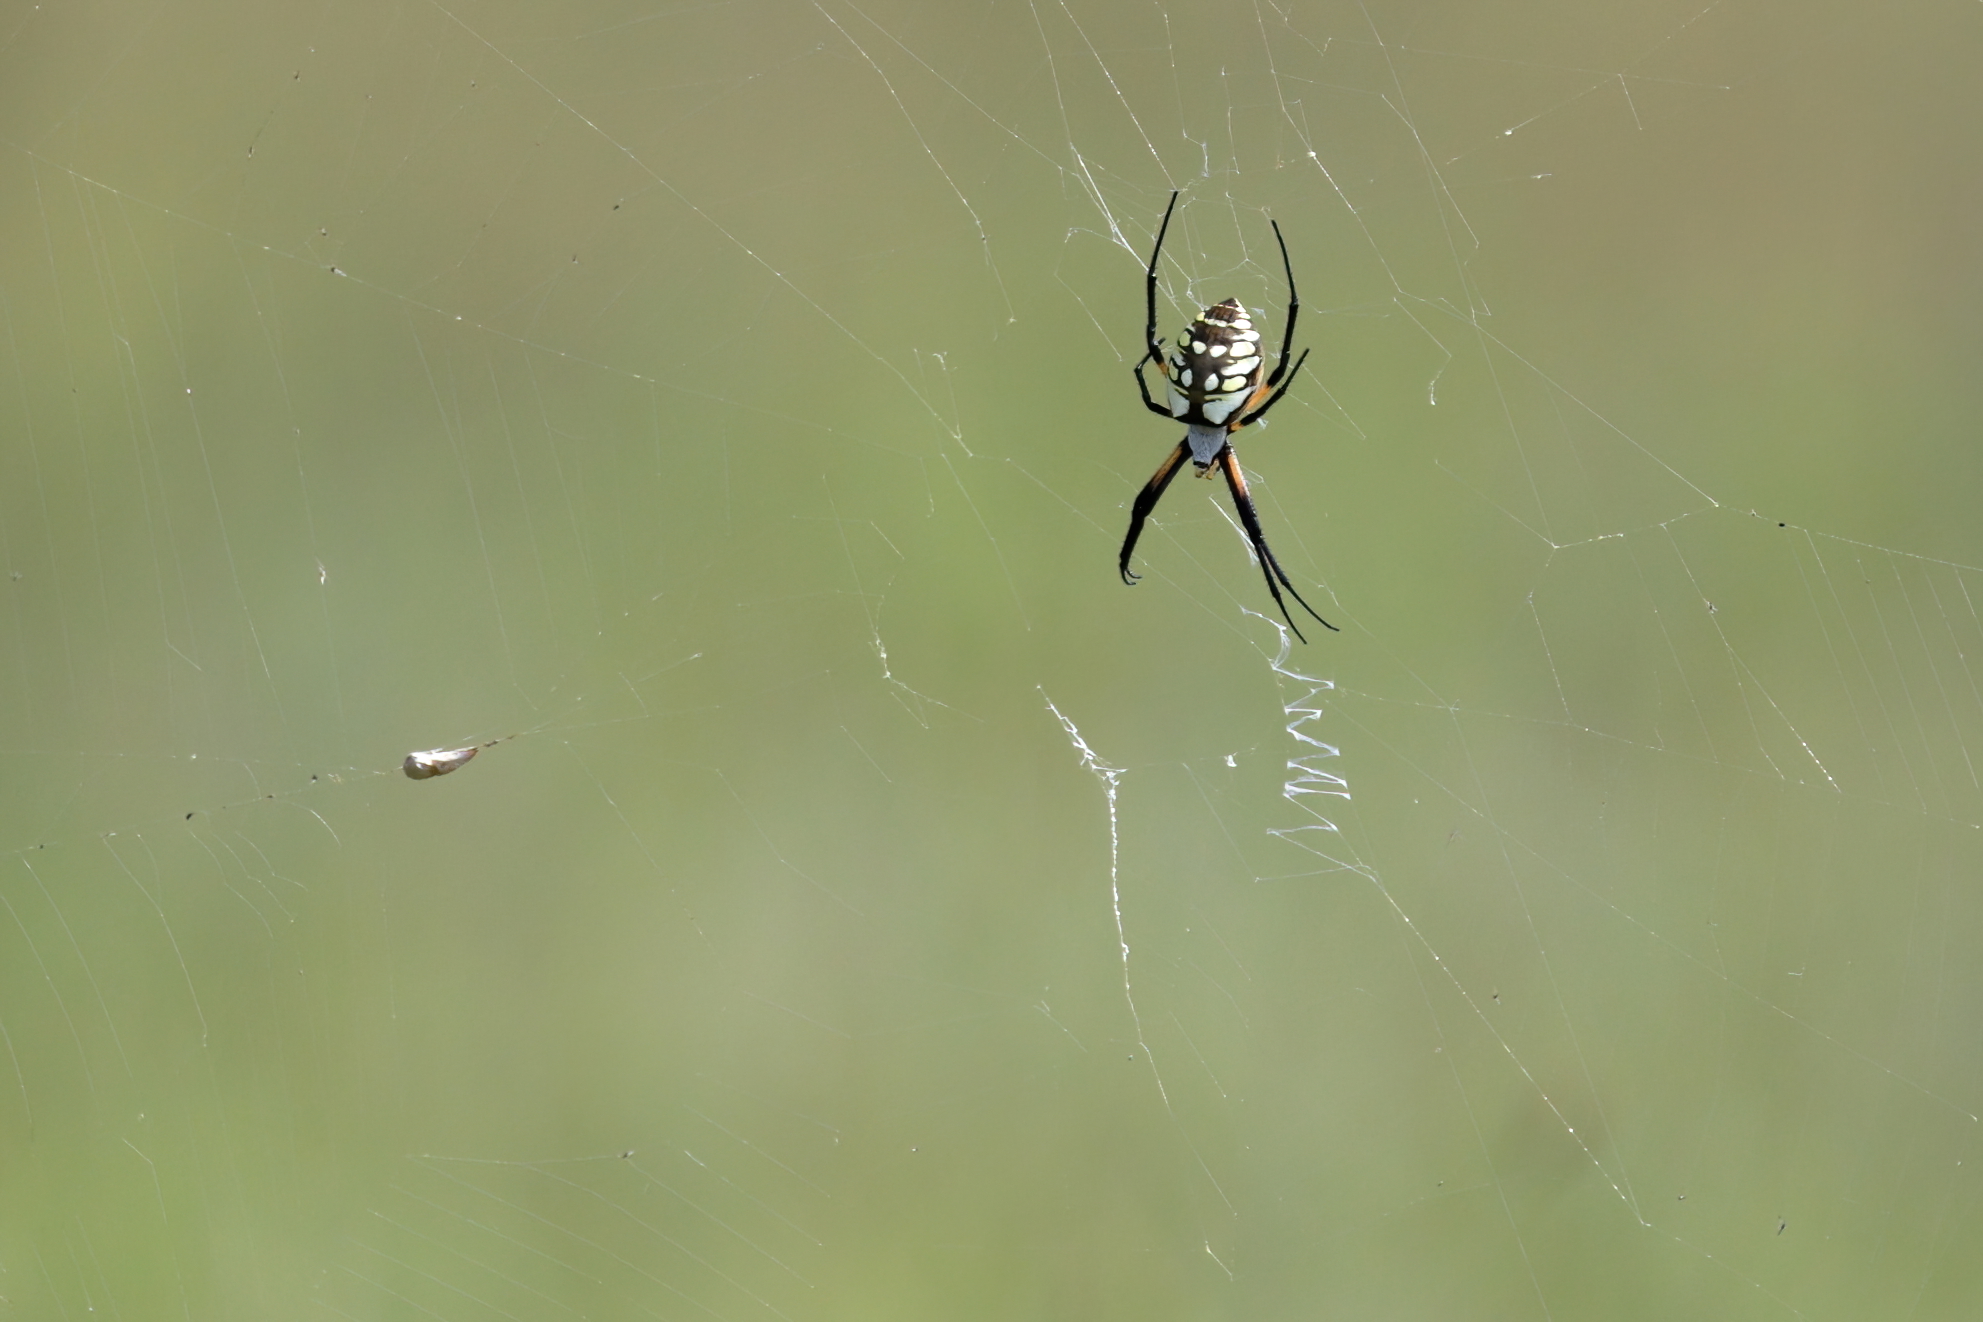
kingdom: Animalia
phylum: Arthropoda
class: Arachnida
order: Araneae
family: Araneidae
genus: Argiope
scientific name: Argiope aurantia
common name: Orb weavers
